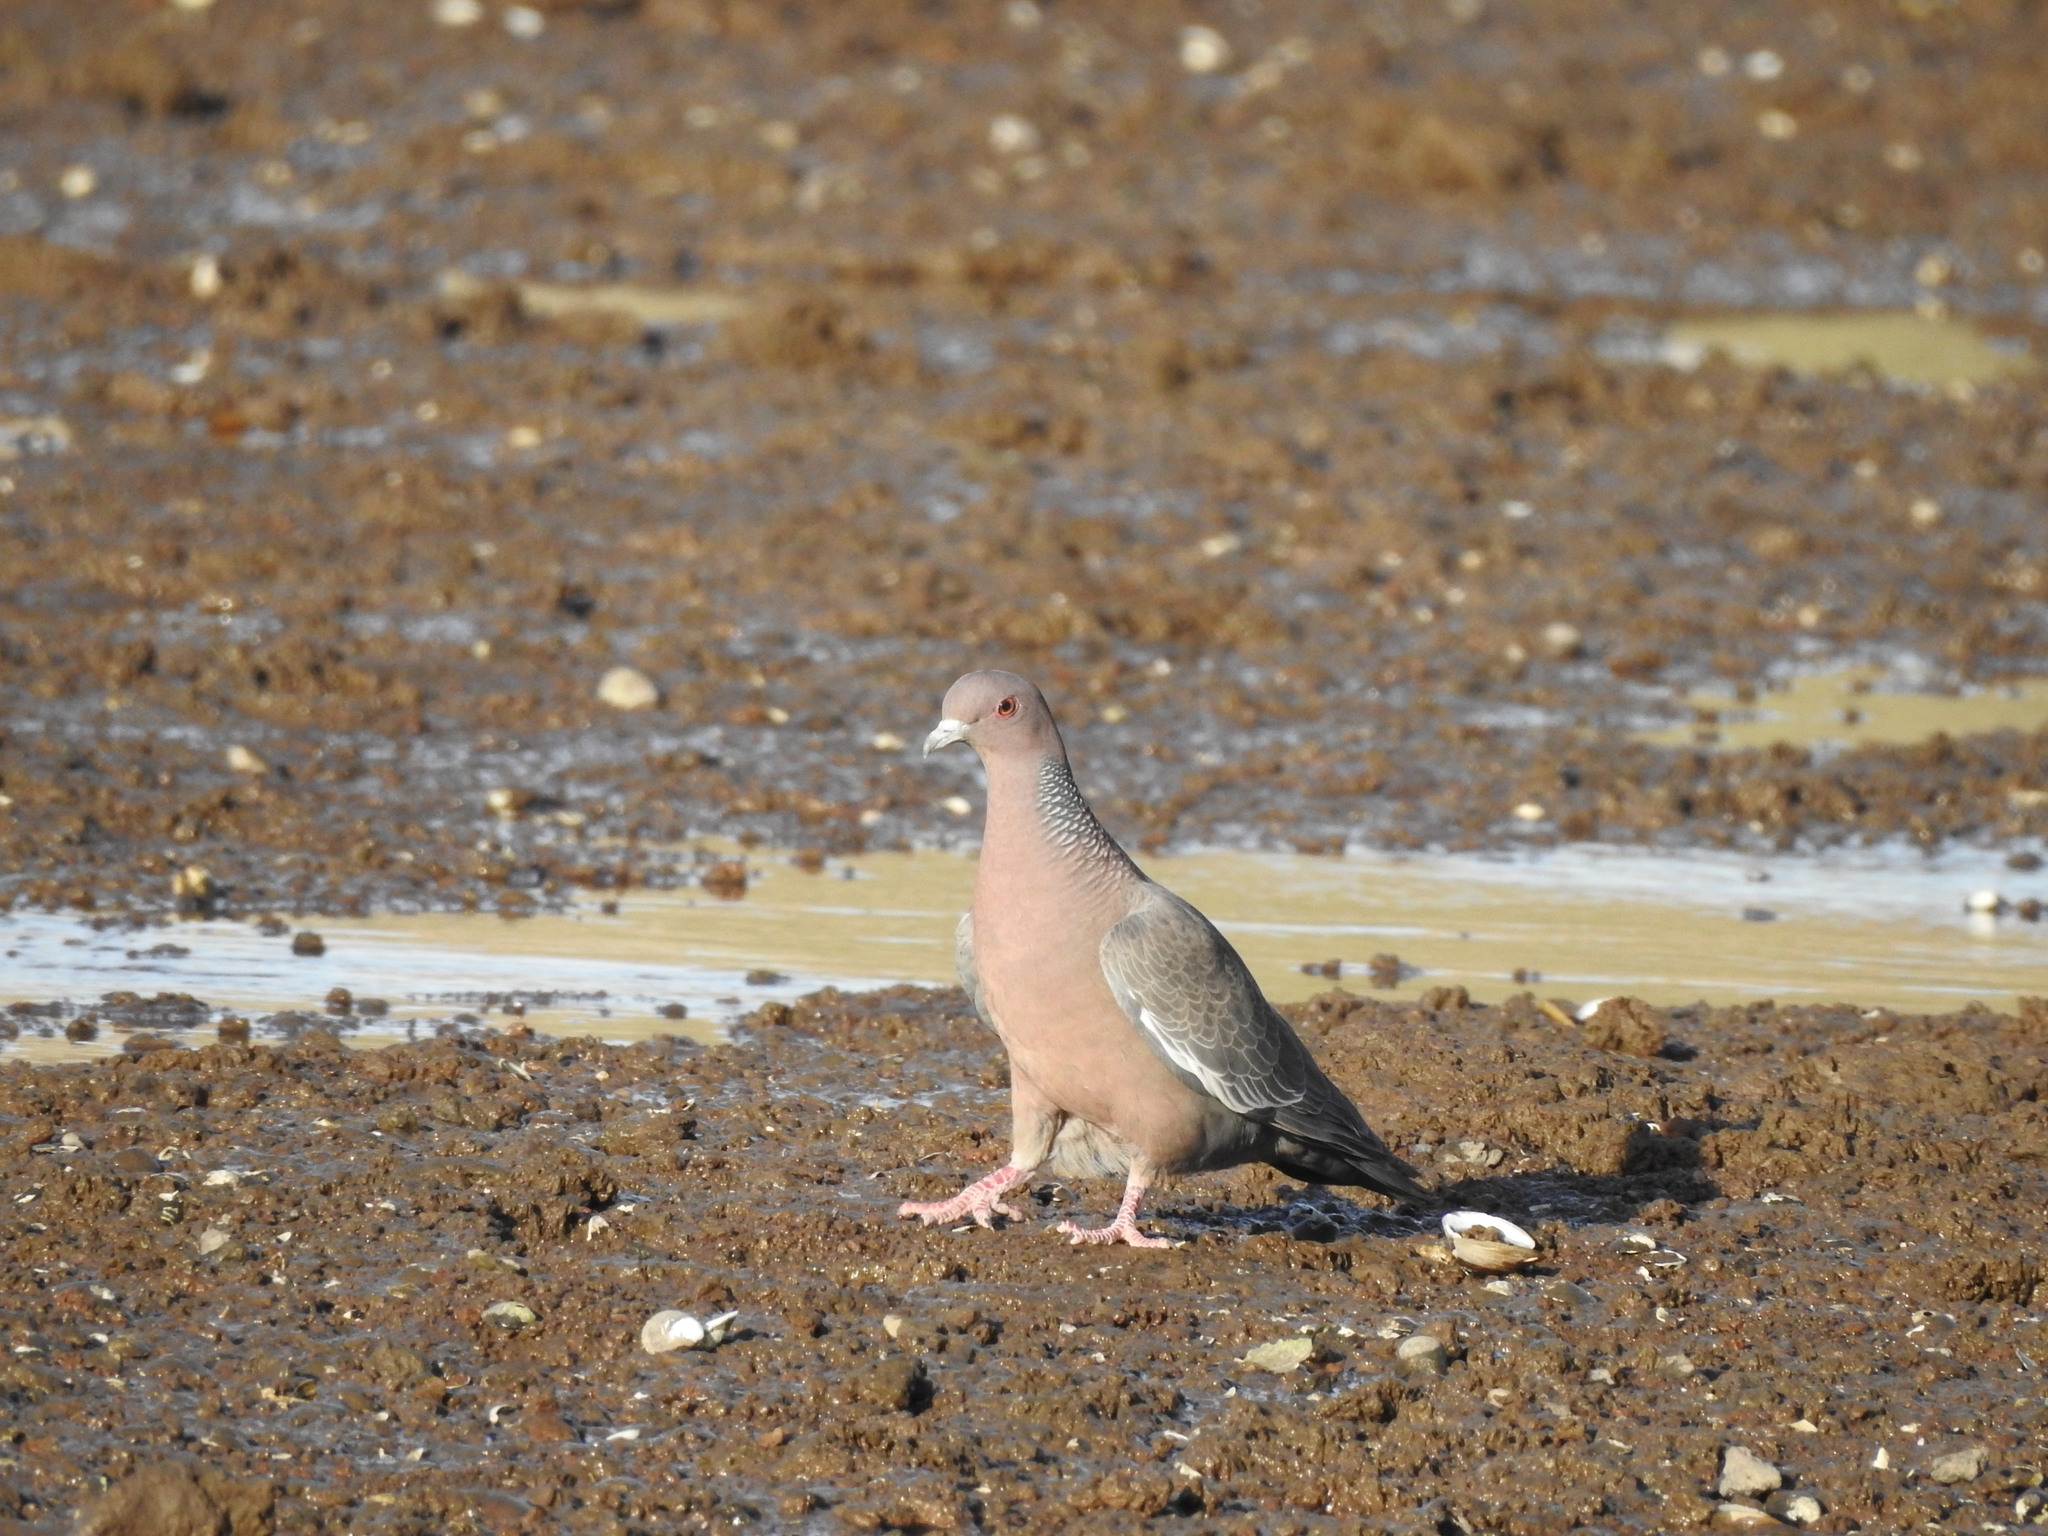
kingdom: Animalia
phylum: Chordata
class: Aves
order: Columbiformes
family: Columbidae
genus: Patagioenas
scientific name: Patagioenas picazuro
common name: Picazuro pigeon
